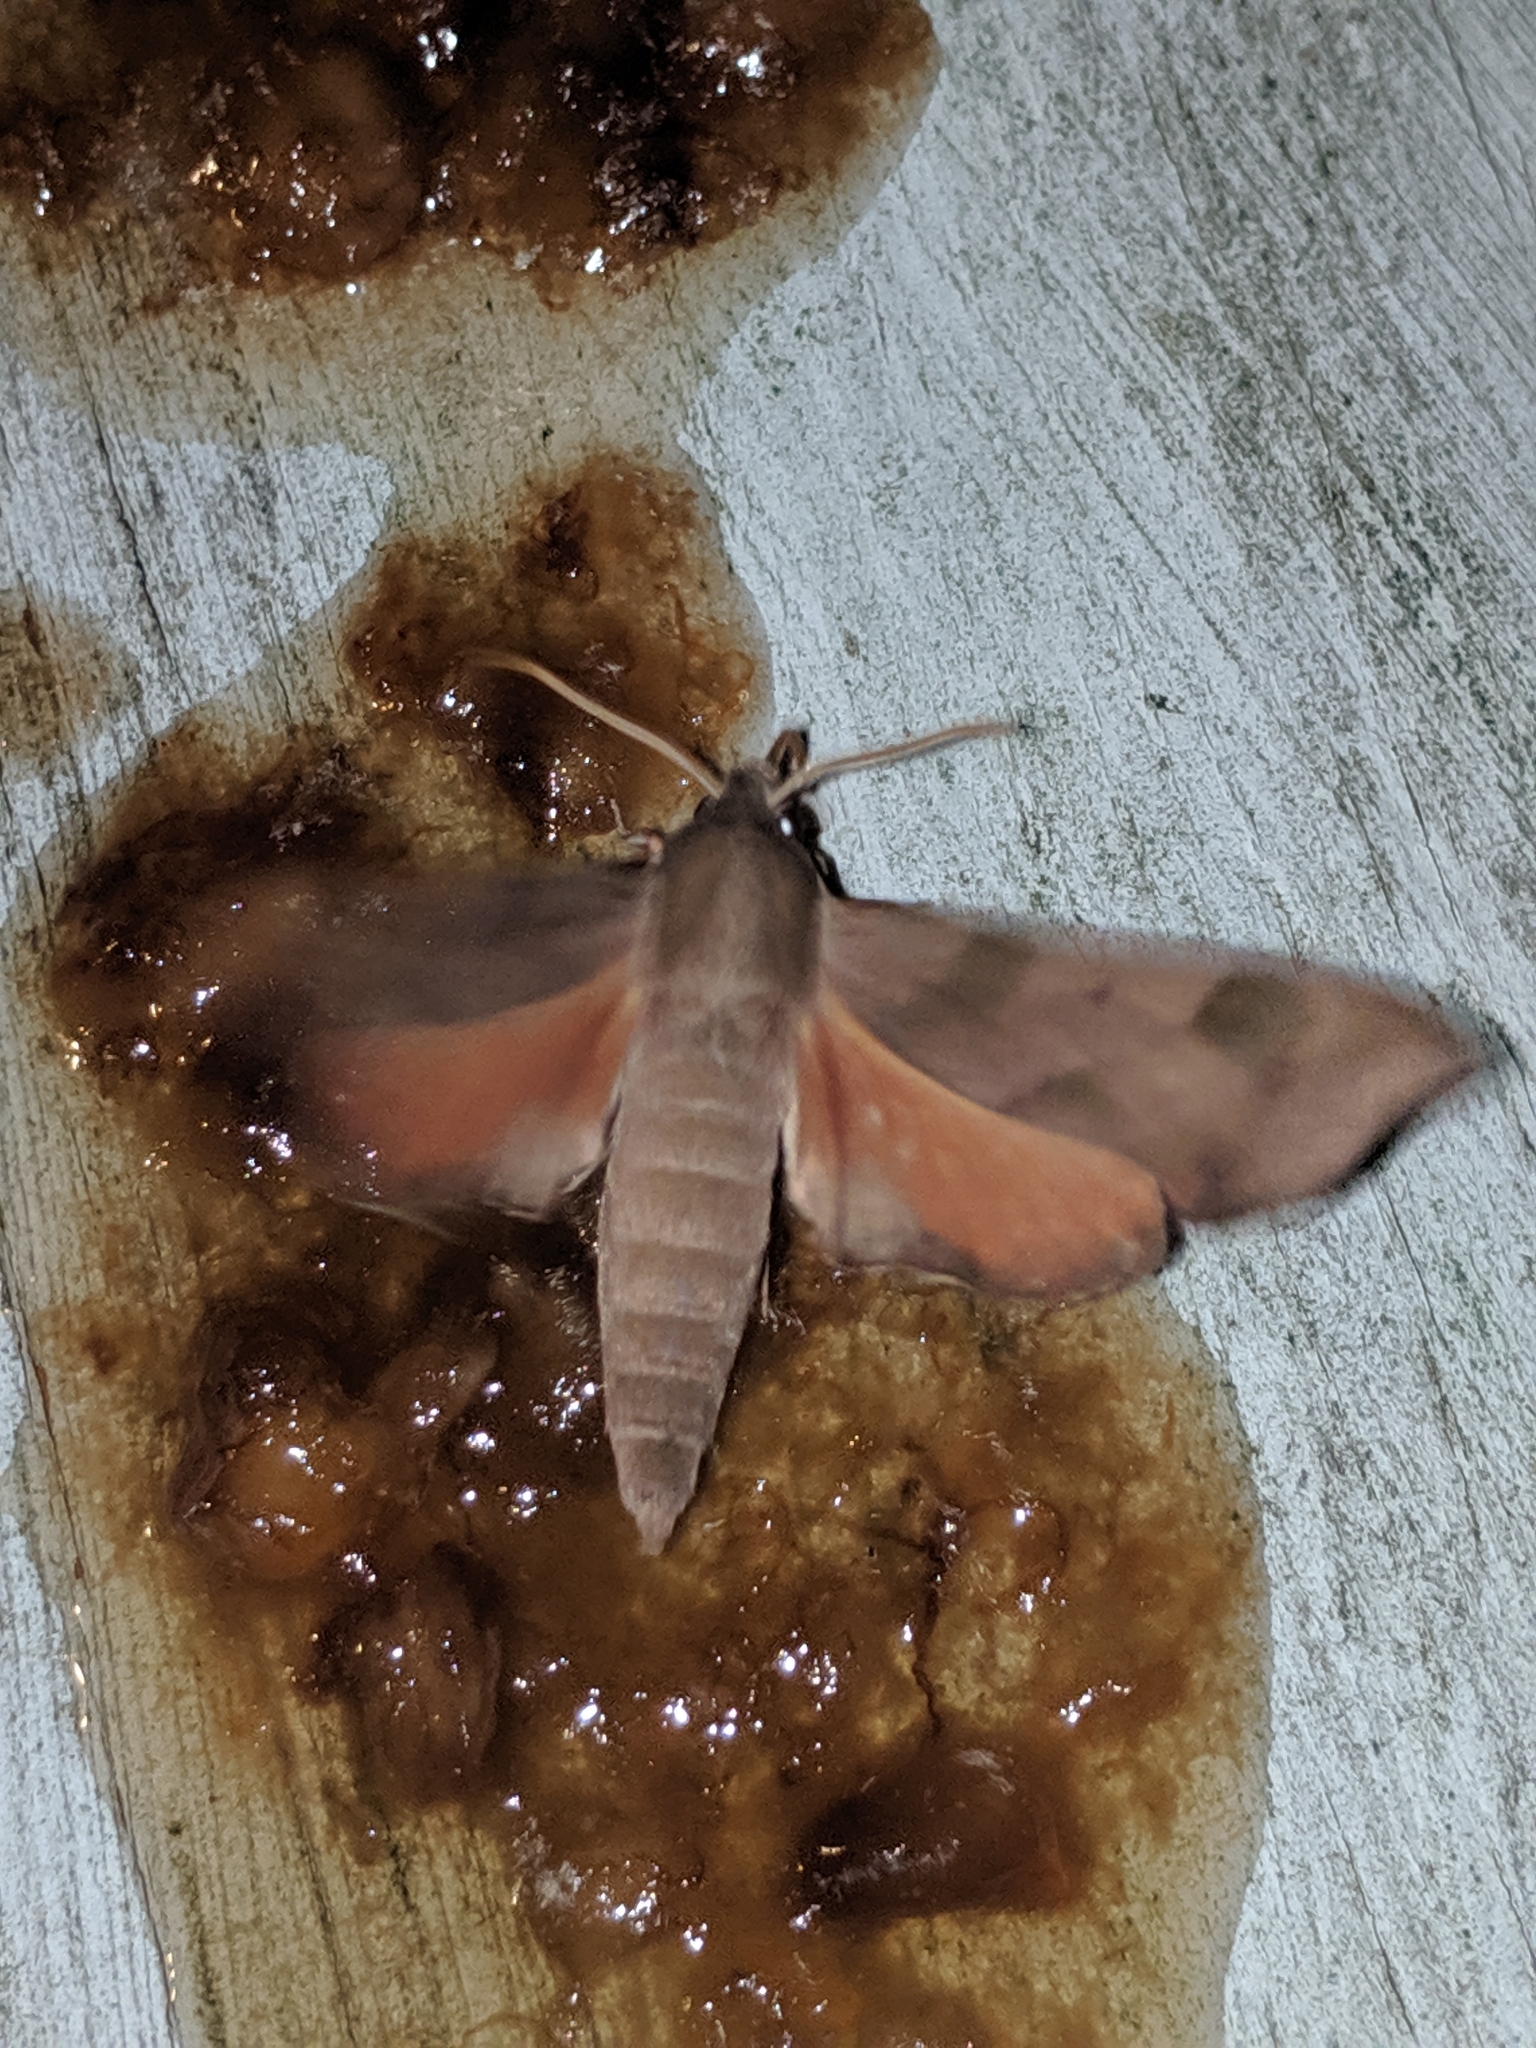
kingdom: Animalia
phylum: Arthropoda
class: Insecta
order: Lepidoptera
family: Sphingidae
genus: Darapsa
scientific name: Darapsa myron
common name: Hog sphinx
